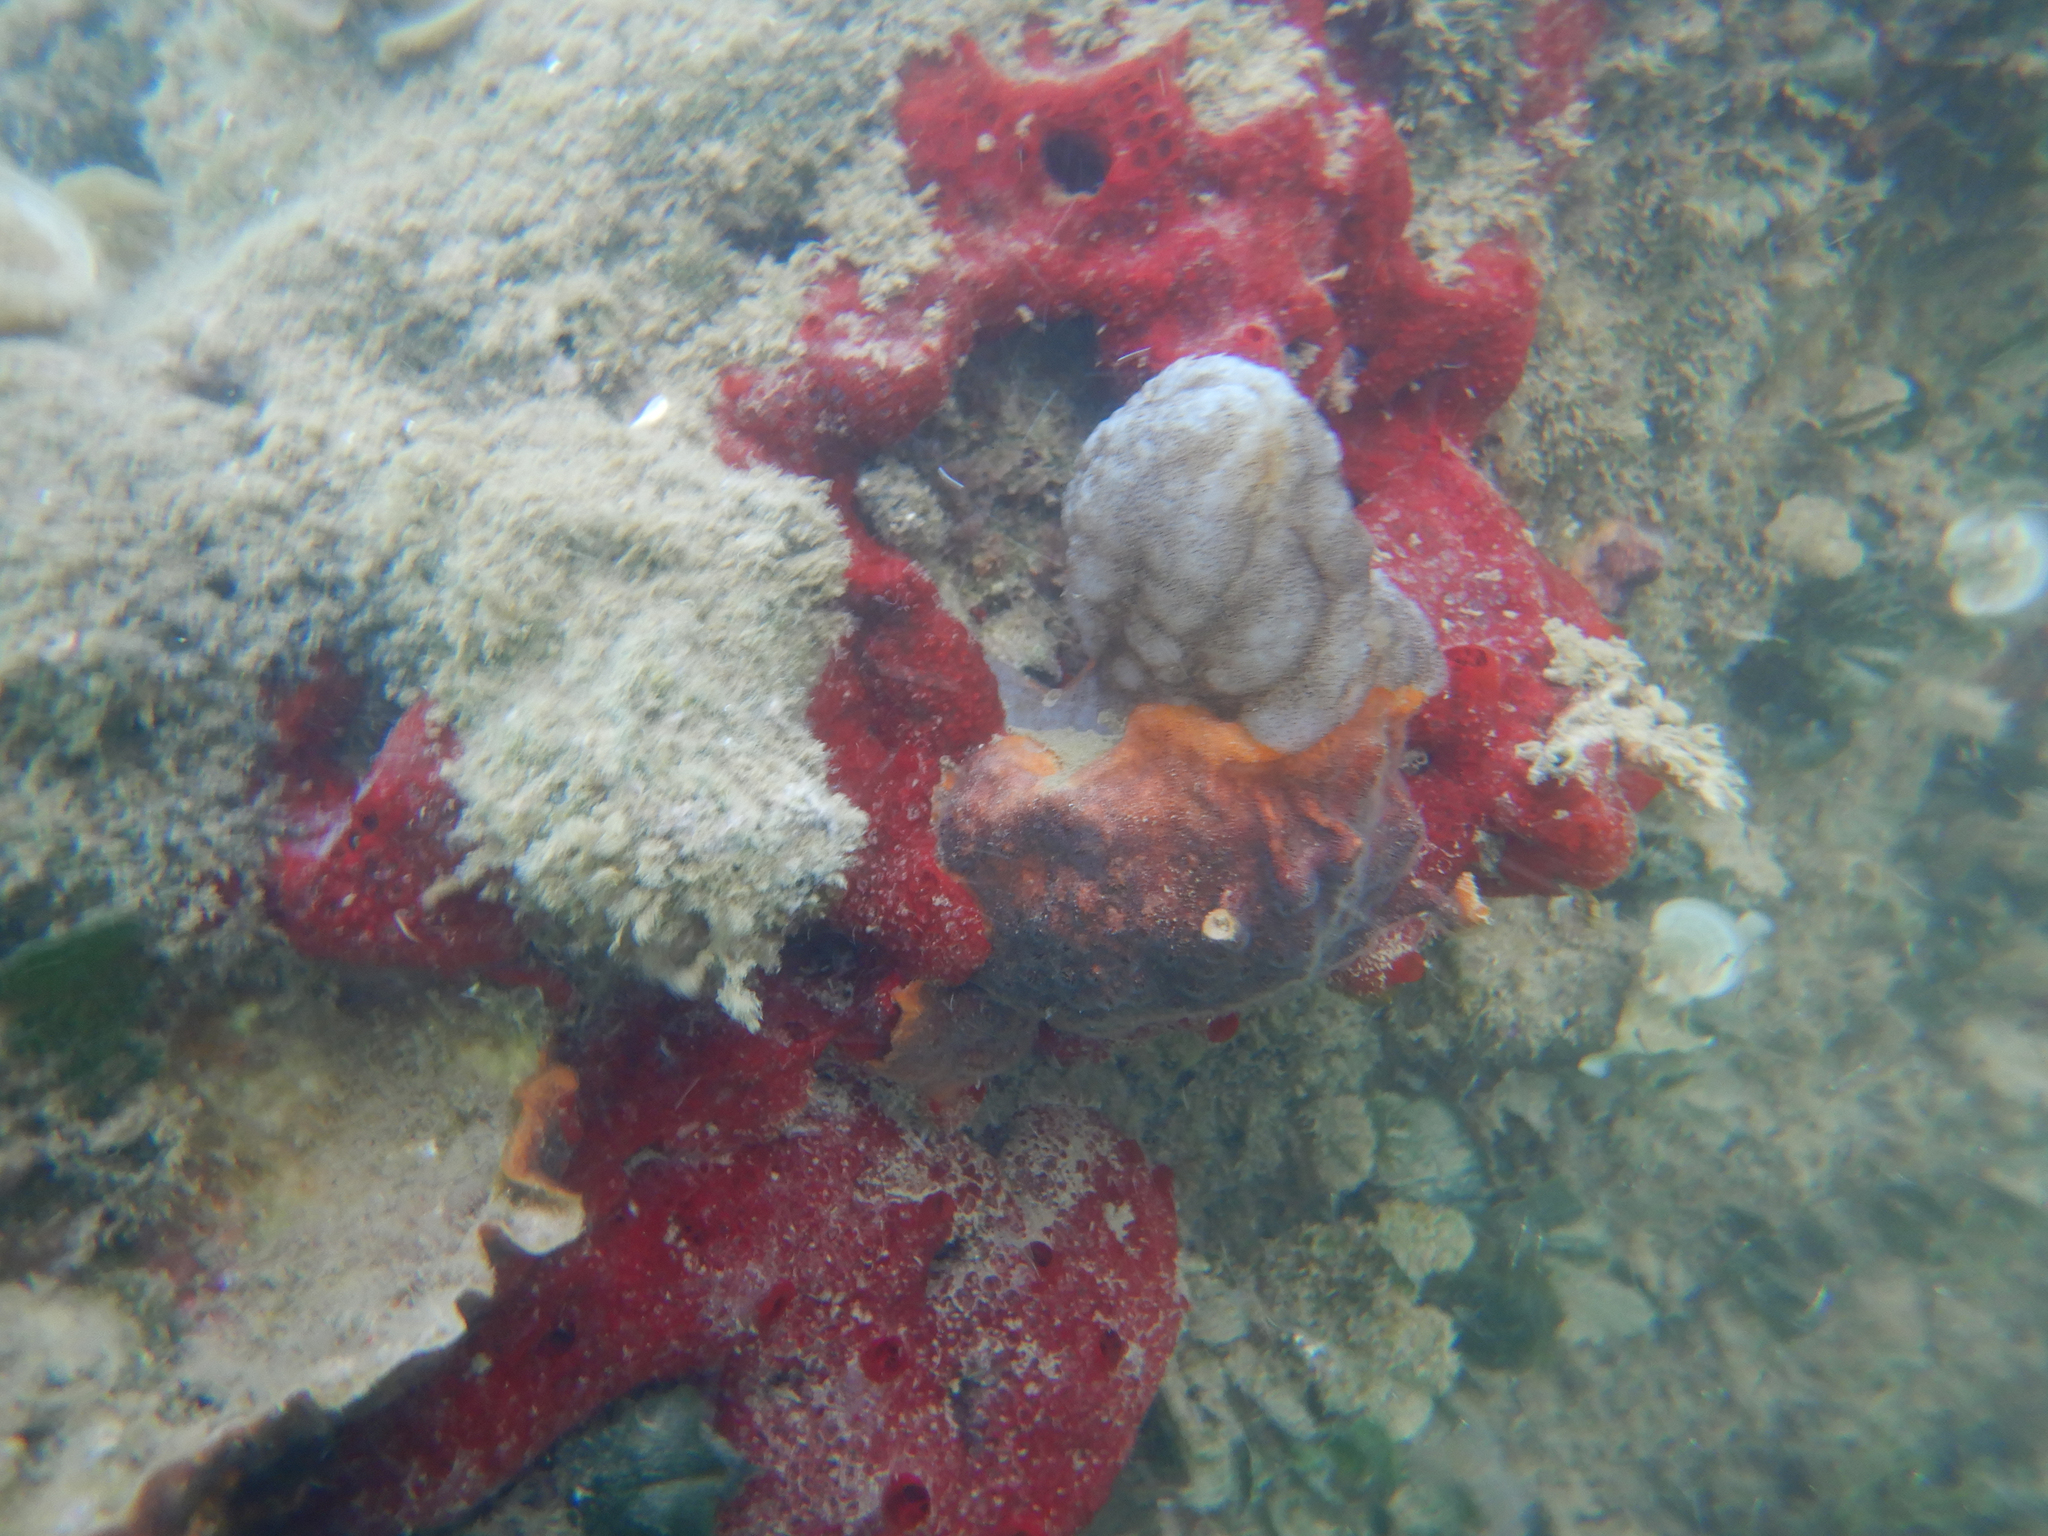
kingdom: Animalia
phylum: Chordata
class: Ascidiacea
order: Phlebobranchia
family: Ascidiidae
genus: Phallusia
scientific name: Phallusia mammillata
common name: Neptune's heart sea squirt
